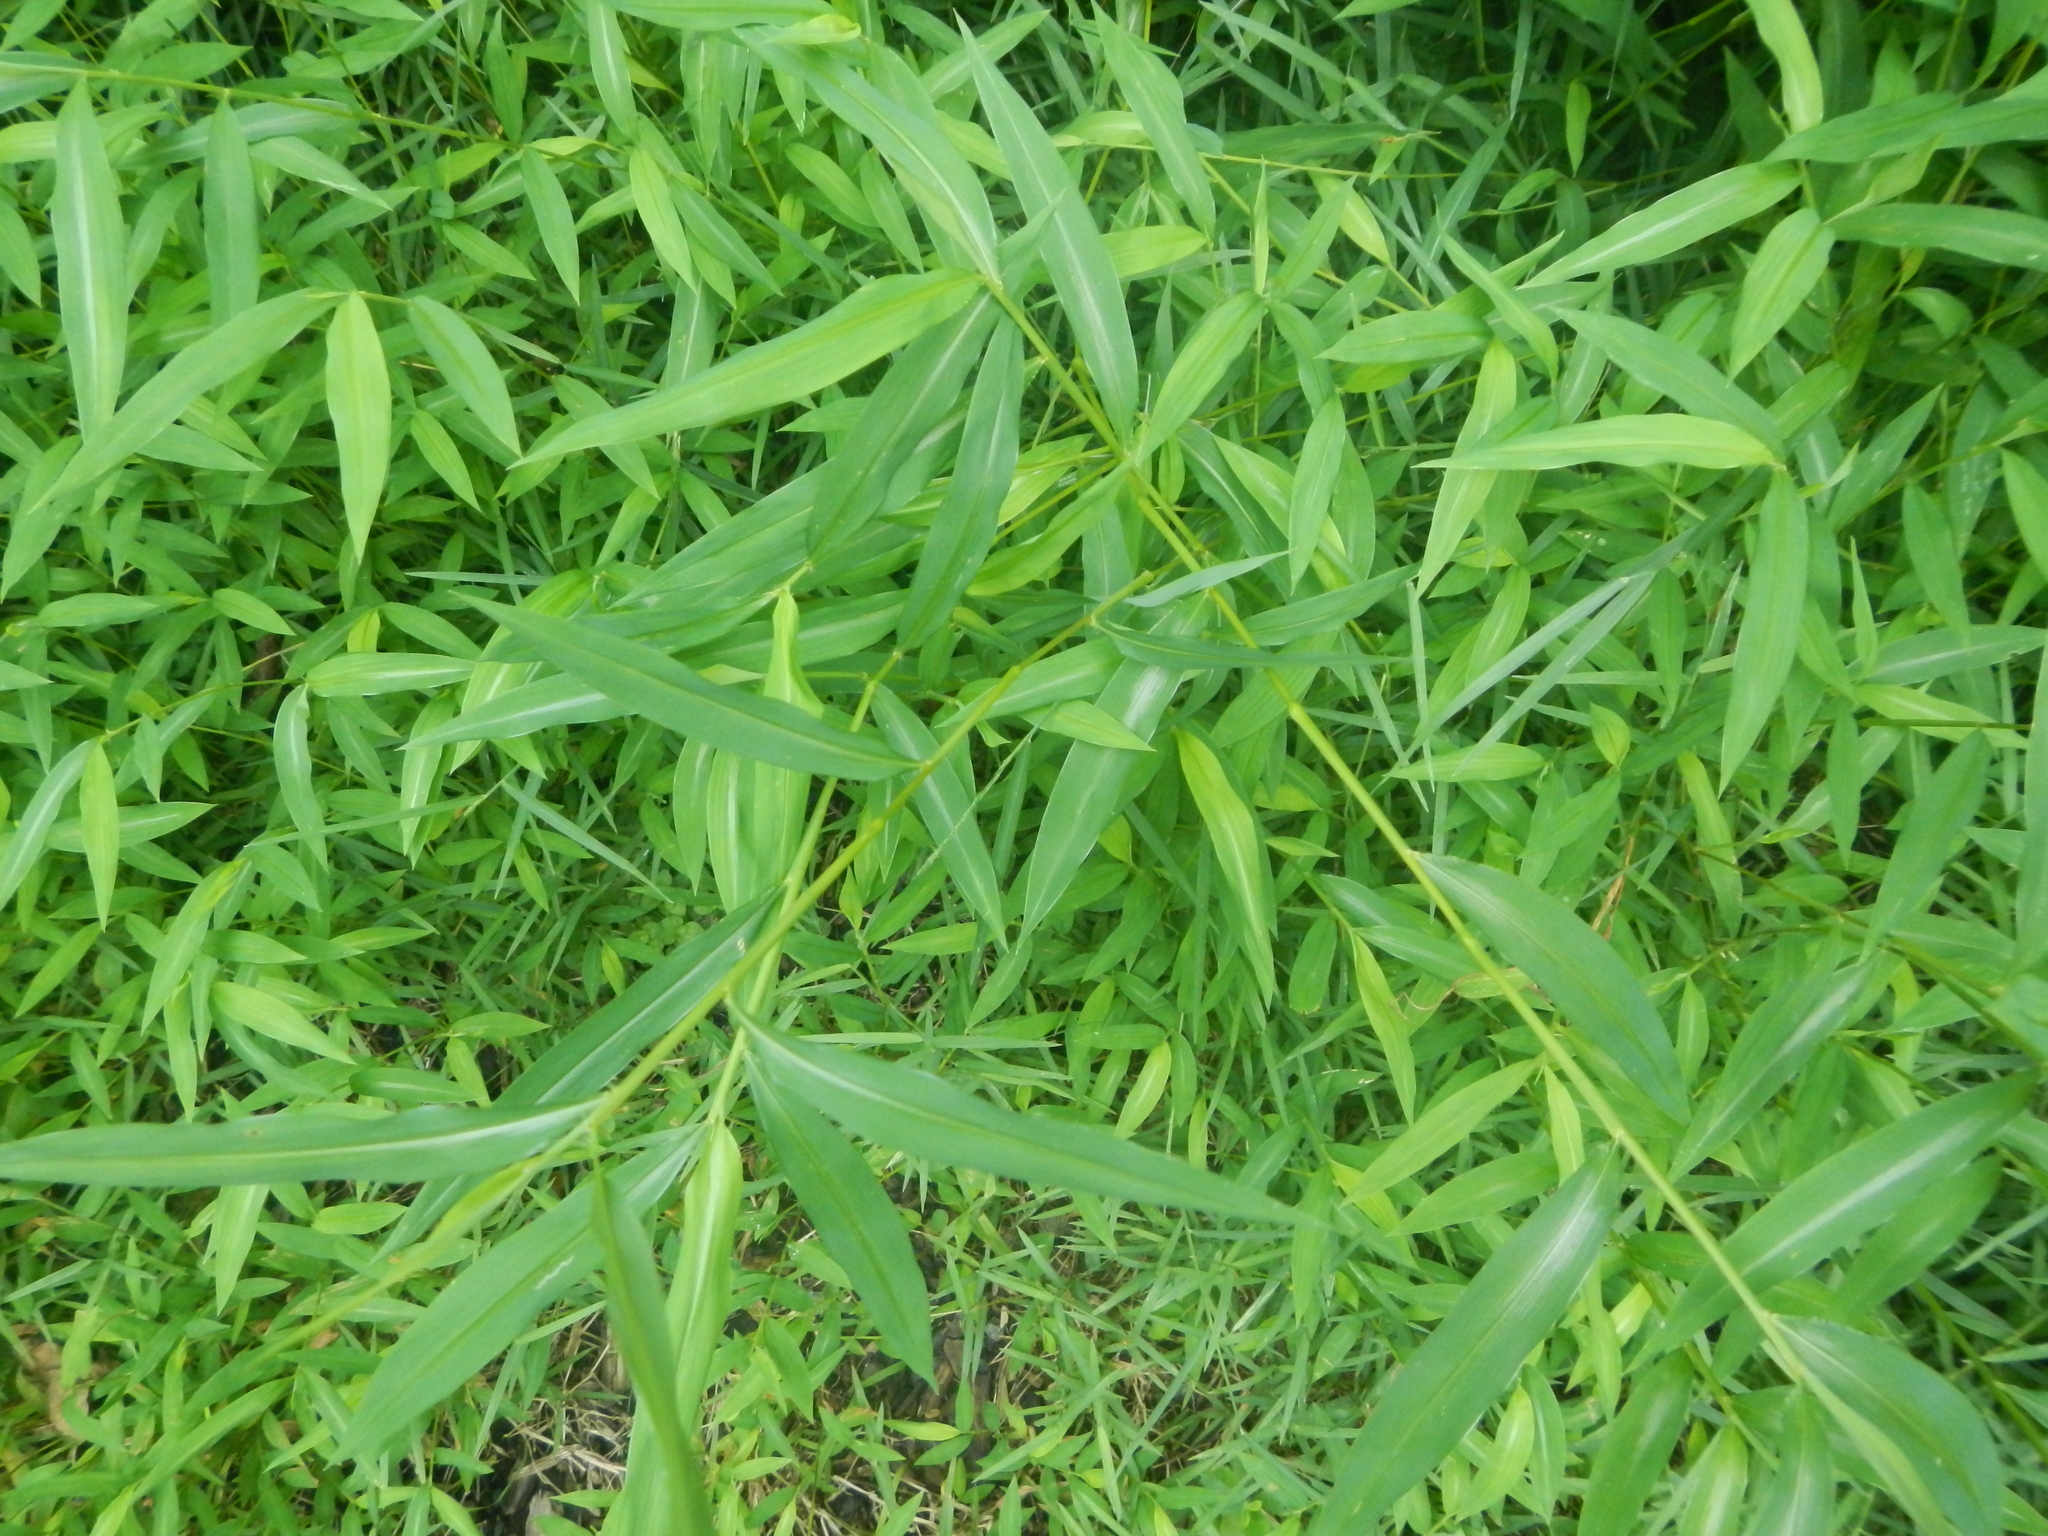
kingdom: Plantae
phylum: Tracheophyta
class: Liliopsida
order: Poales
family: Poaceae
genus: Microstegium
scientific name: Microstegium vimineum
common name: Japanese stiltgrass
